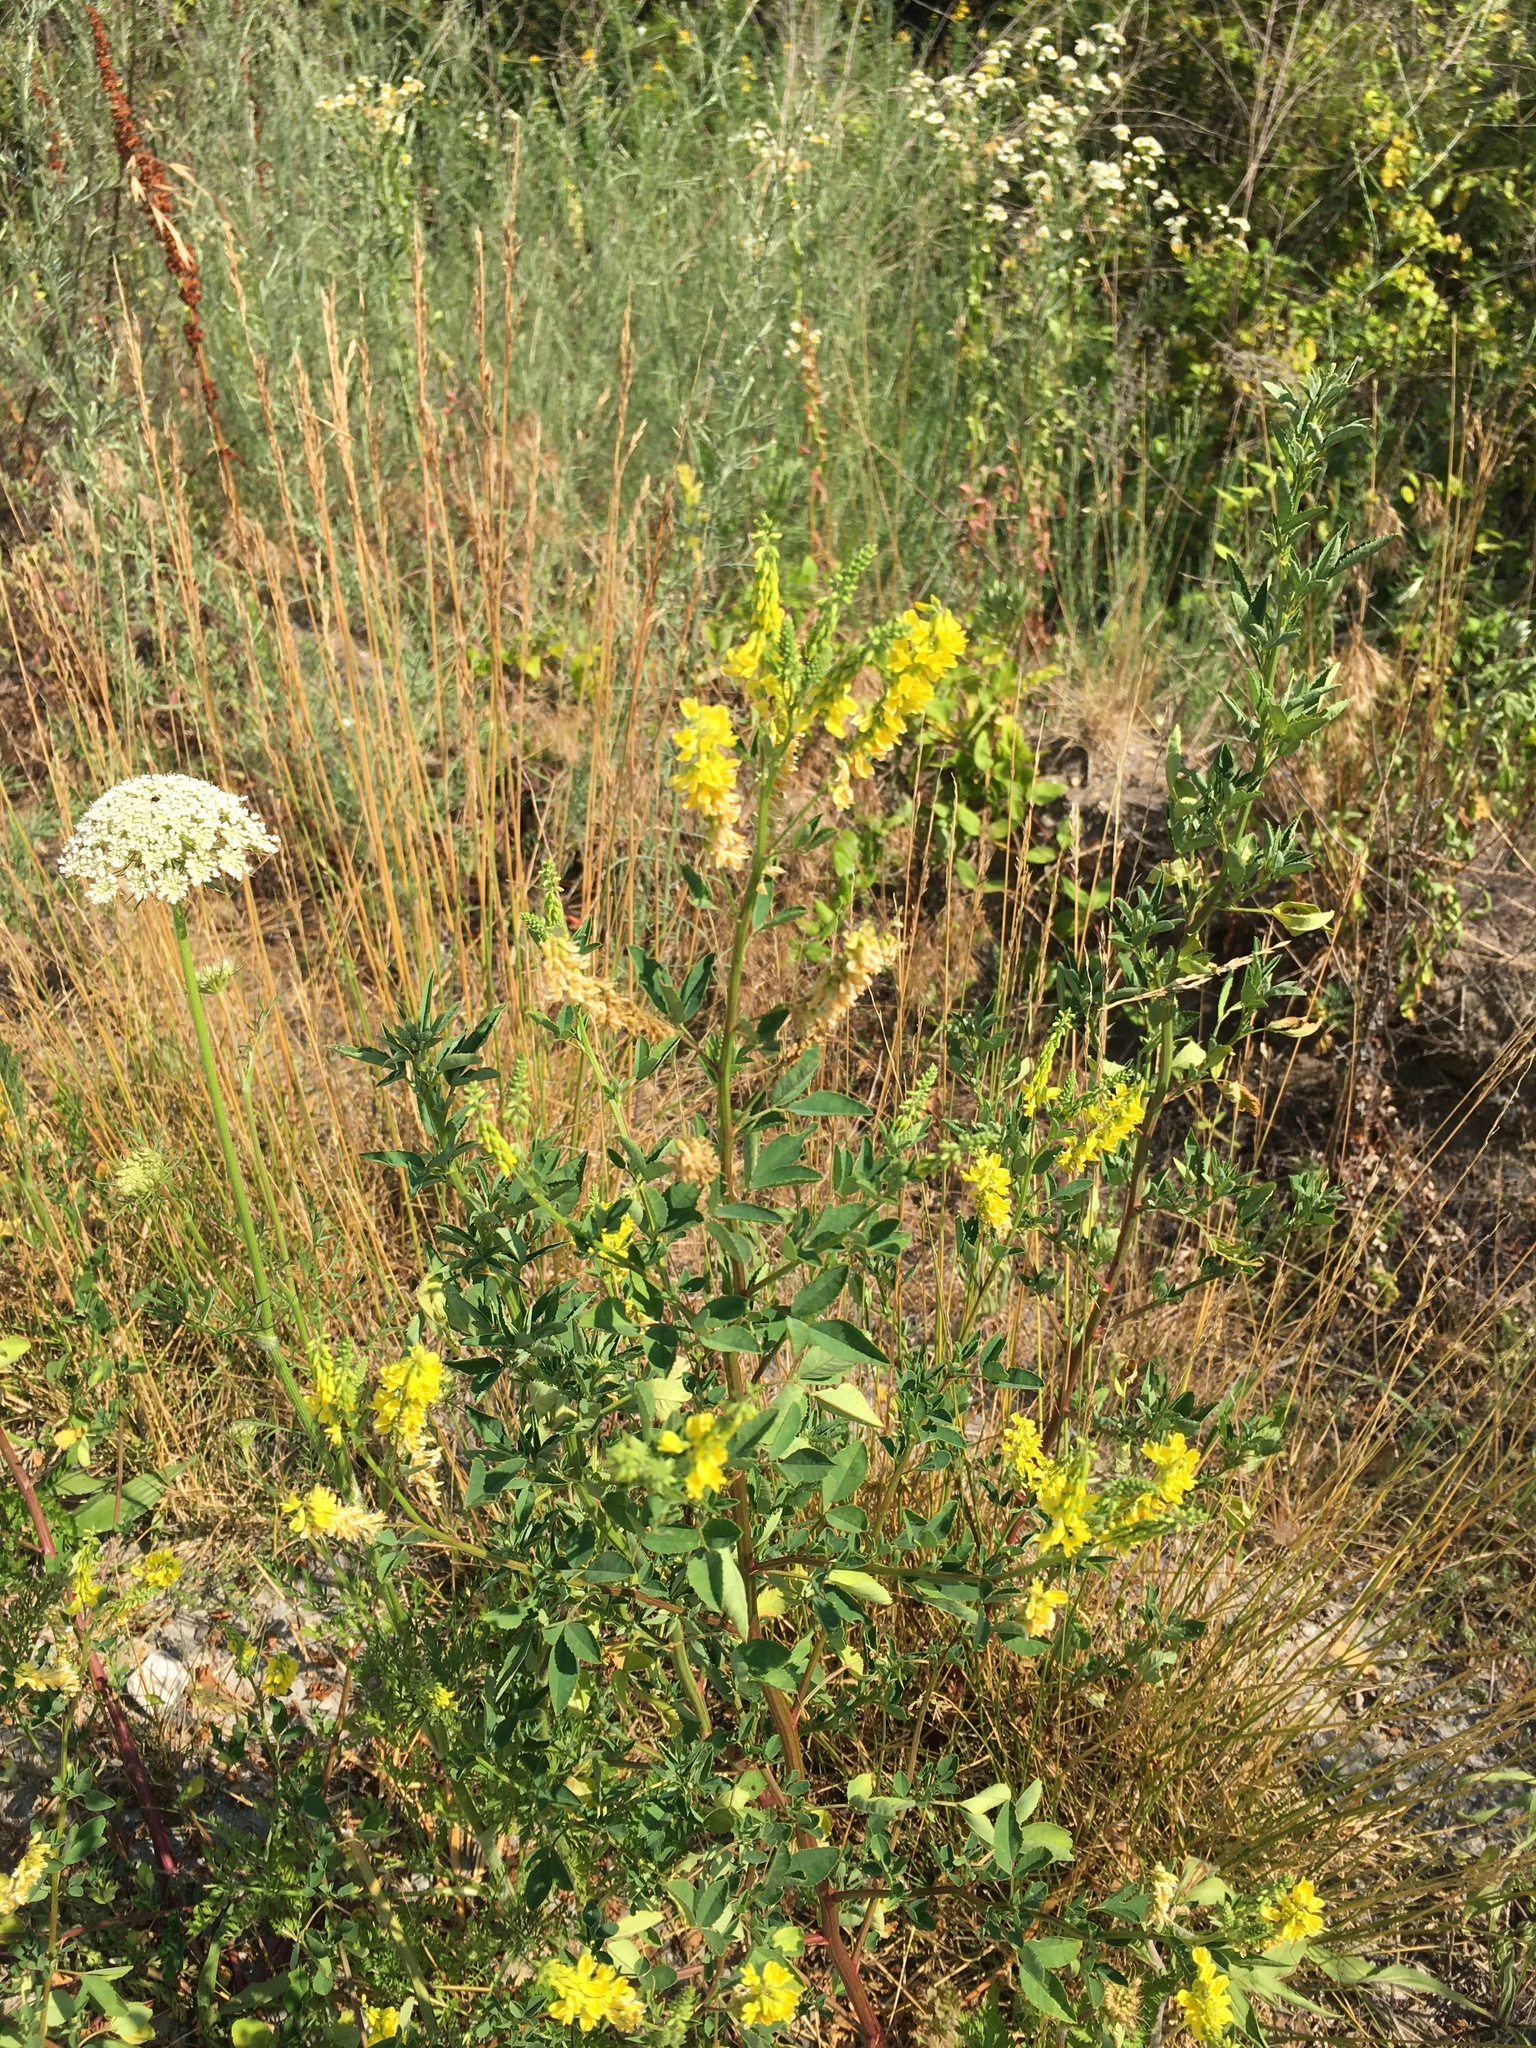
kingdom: Plantae
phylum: Tracheophyta
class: Magnoliopsida
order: Fabales
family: Fabaceae
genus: Melilotus
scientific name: Melilotus officinalis
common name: Sweetclover
